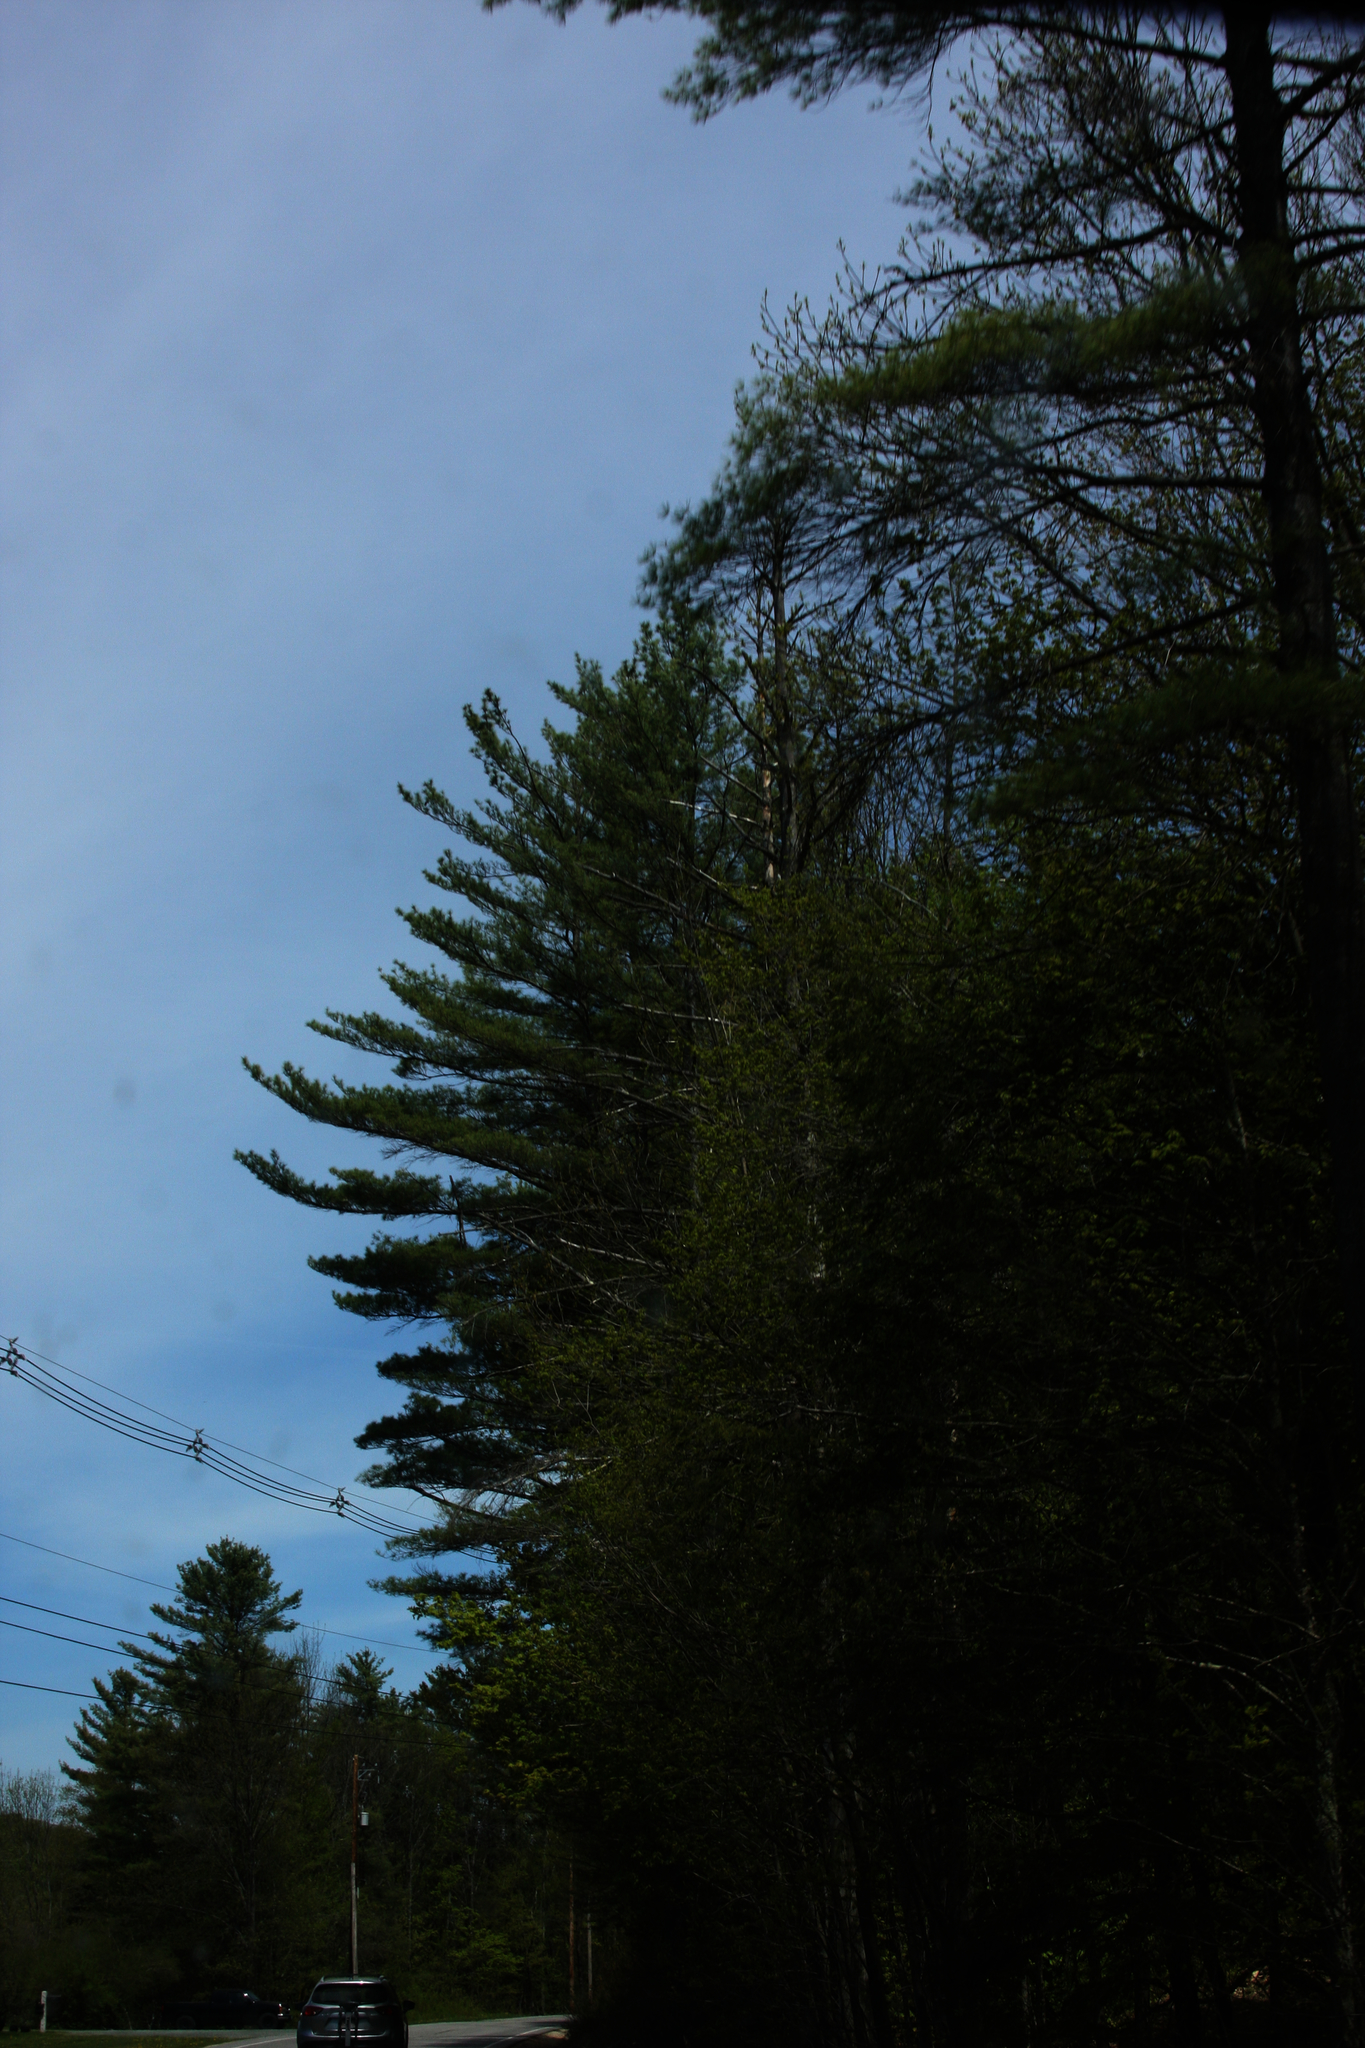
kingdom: Plantae
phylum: Tracheophyta
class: Pinopsida
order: Pinales
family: Pinaceae
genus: Pinus
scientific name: Pinus strobus
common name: Weymouth pine
